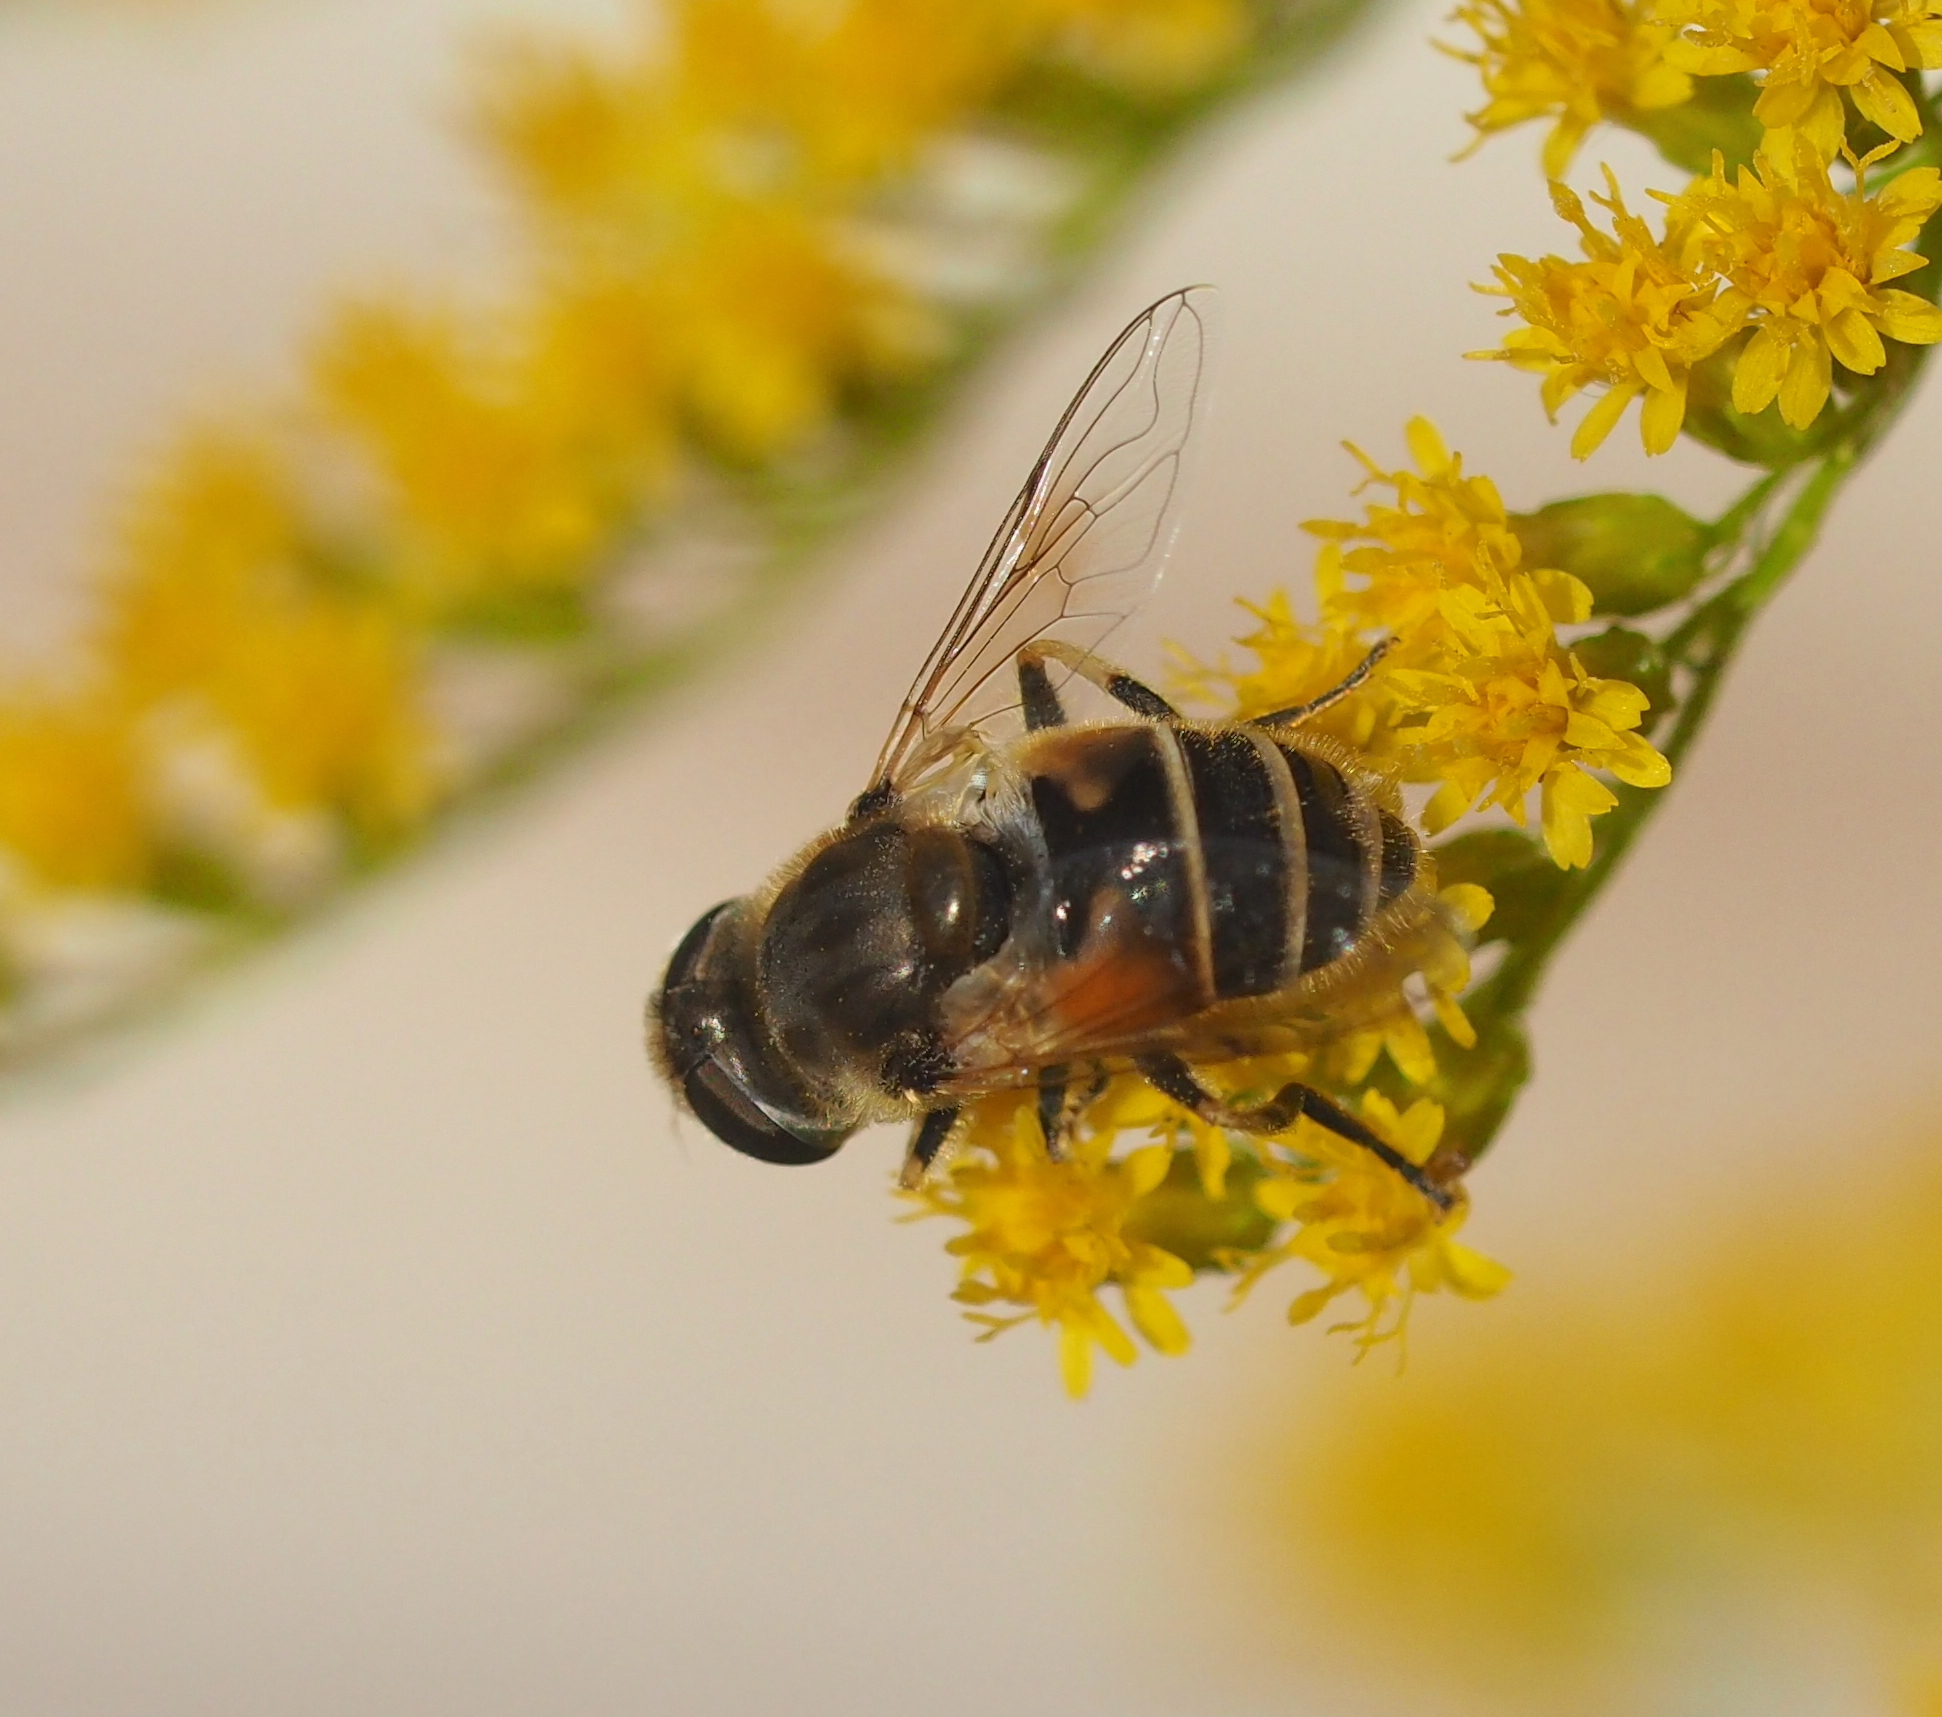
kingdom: Animalia
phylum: Arthropoda
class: Insecta
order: Diptera
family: Syrphidae
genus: Eristalis
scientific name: Eristalis arbustorum
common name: Hover fly
